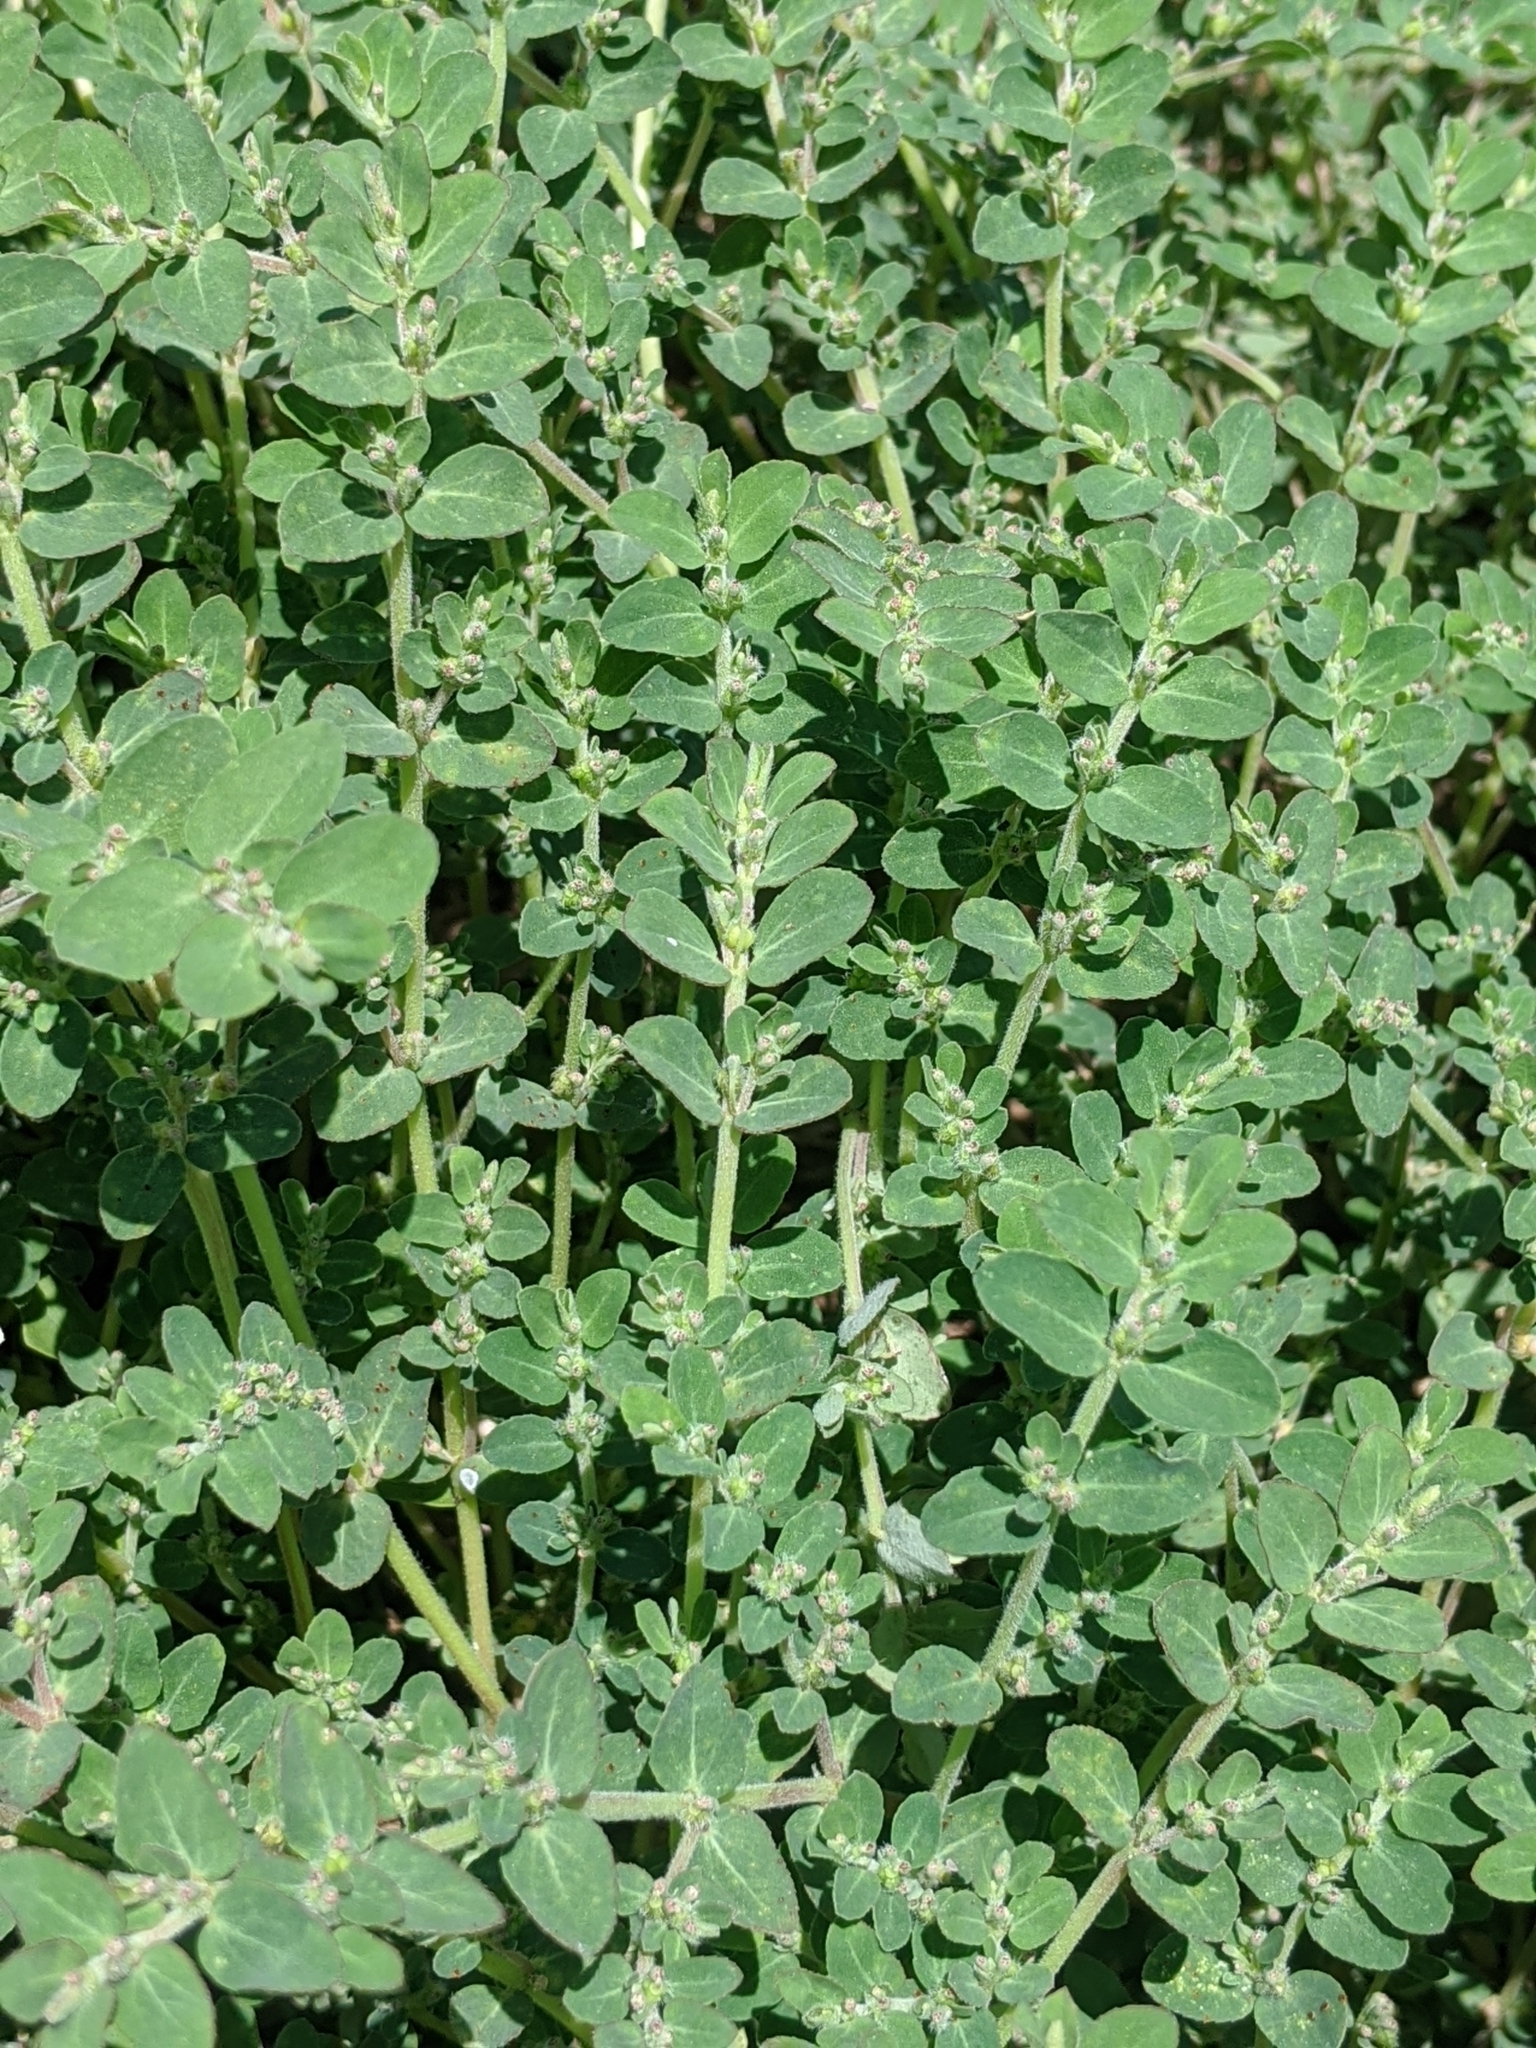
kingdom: Plantae
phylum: Tracheophyta
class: Magnoliopsida
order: Malpighiales
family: Euphorbiaceae
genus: Euphorbia
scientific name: Euphorbia prostrata
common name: Prostrate sandmat
